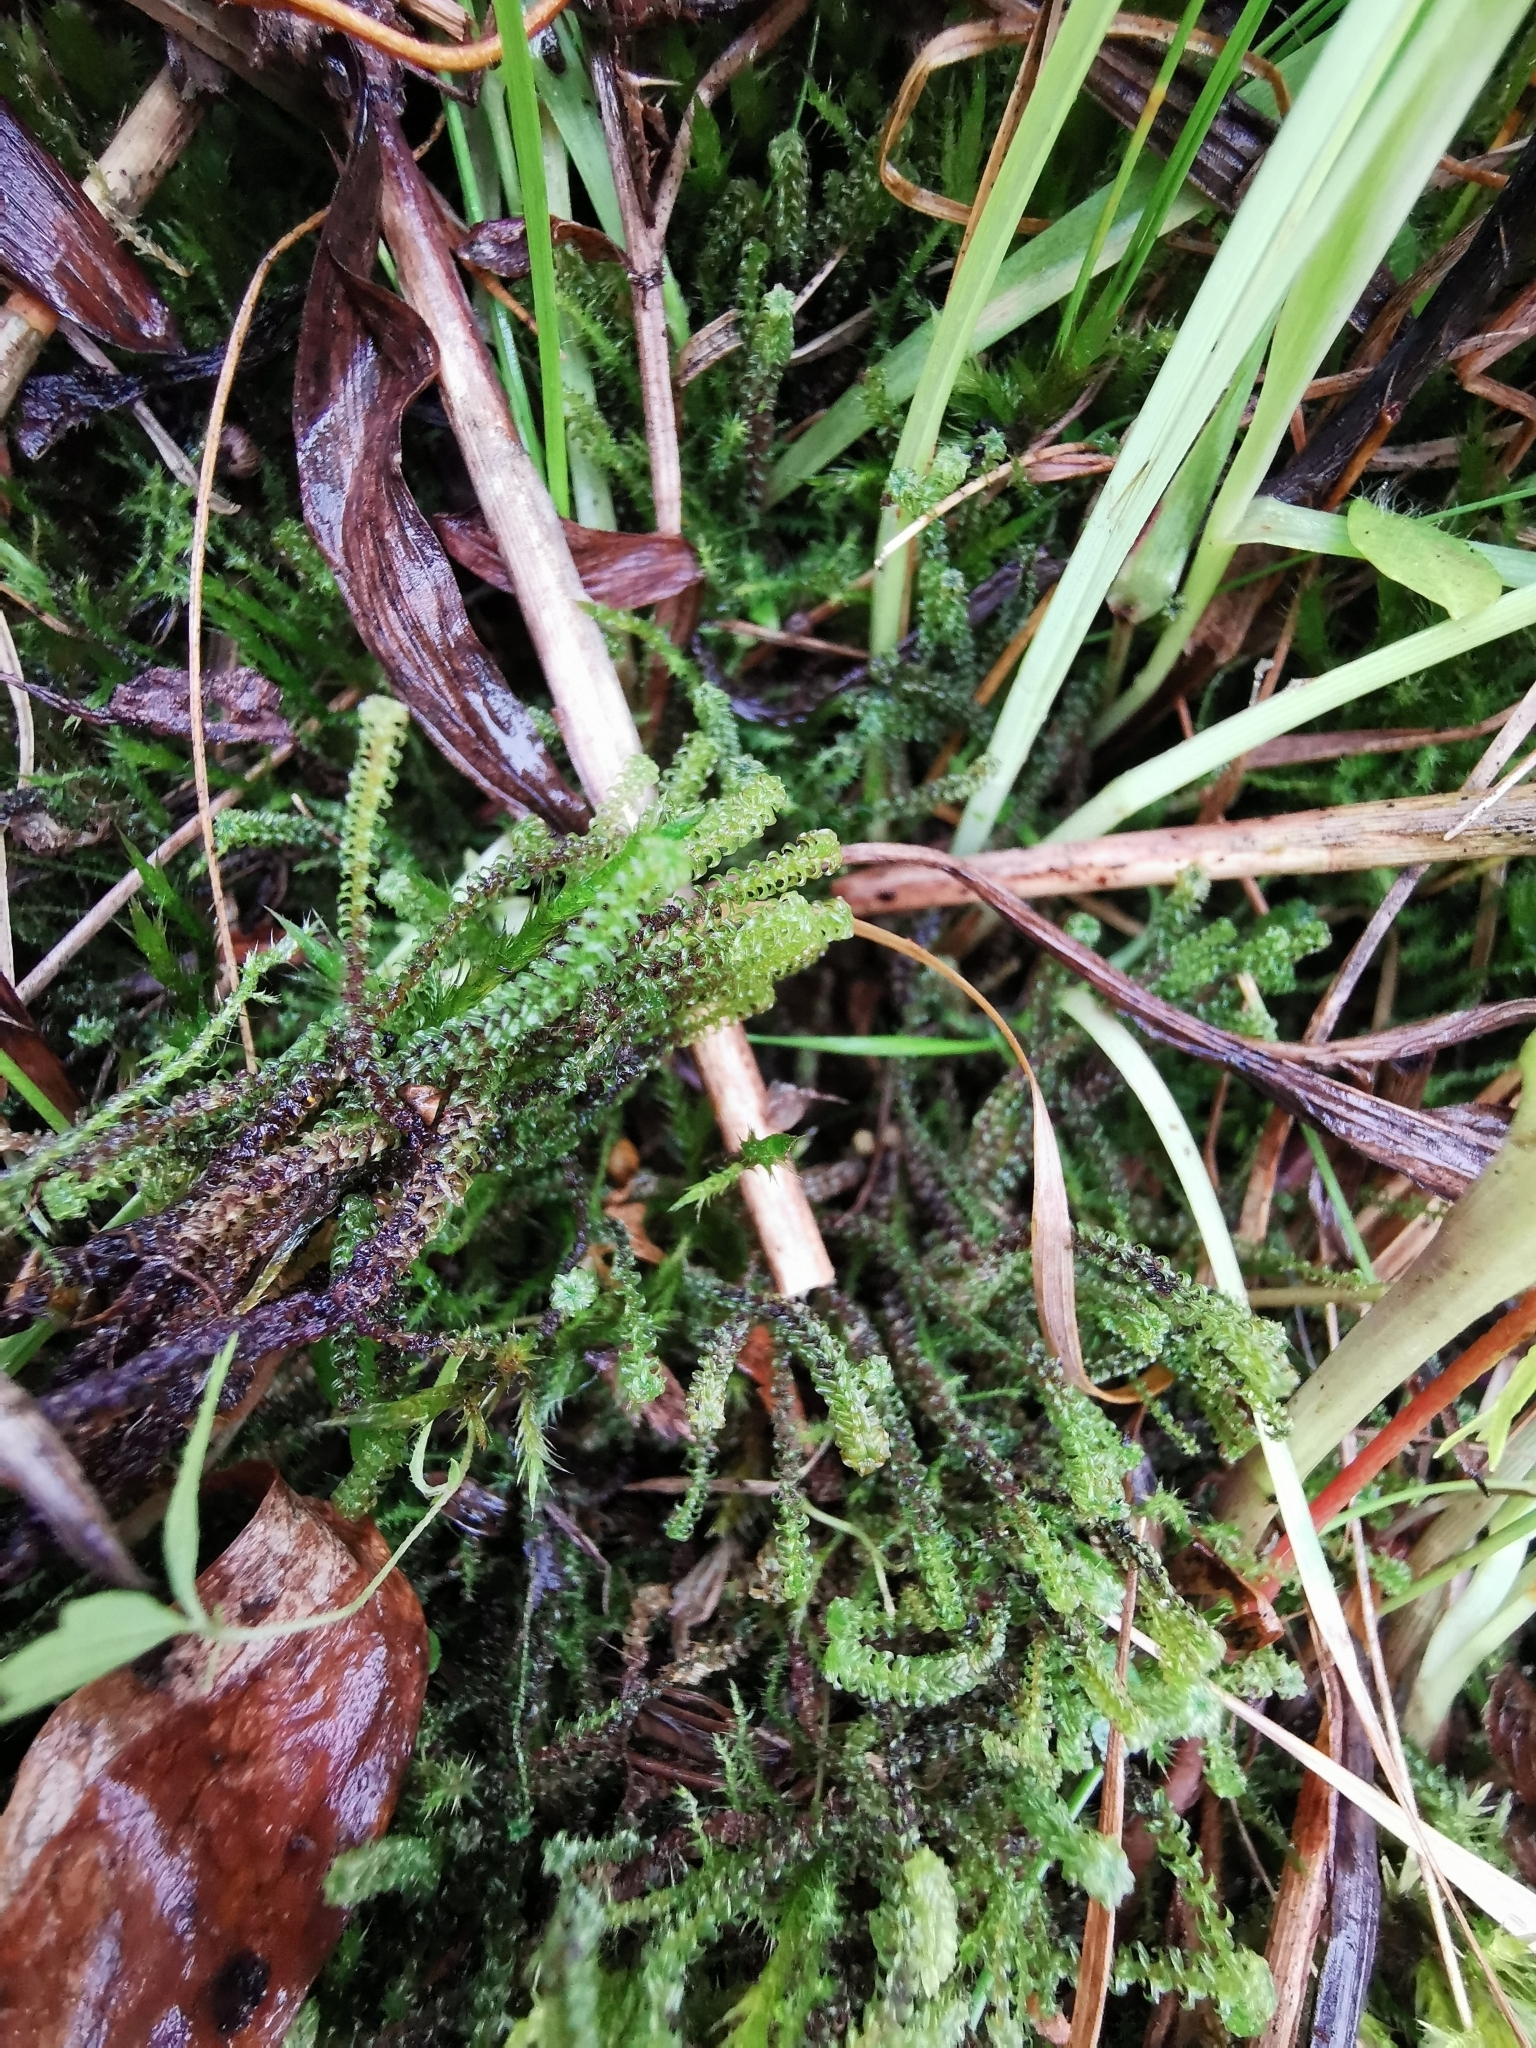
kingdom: Plantae
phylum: Bryophyta
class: Bryopsida
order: Splachnales
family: Meesiaceae
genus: Paludella
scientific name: Paludella squarrosa
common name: Tufted fen moss
